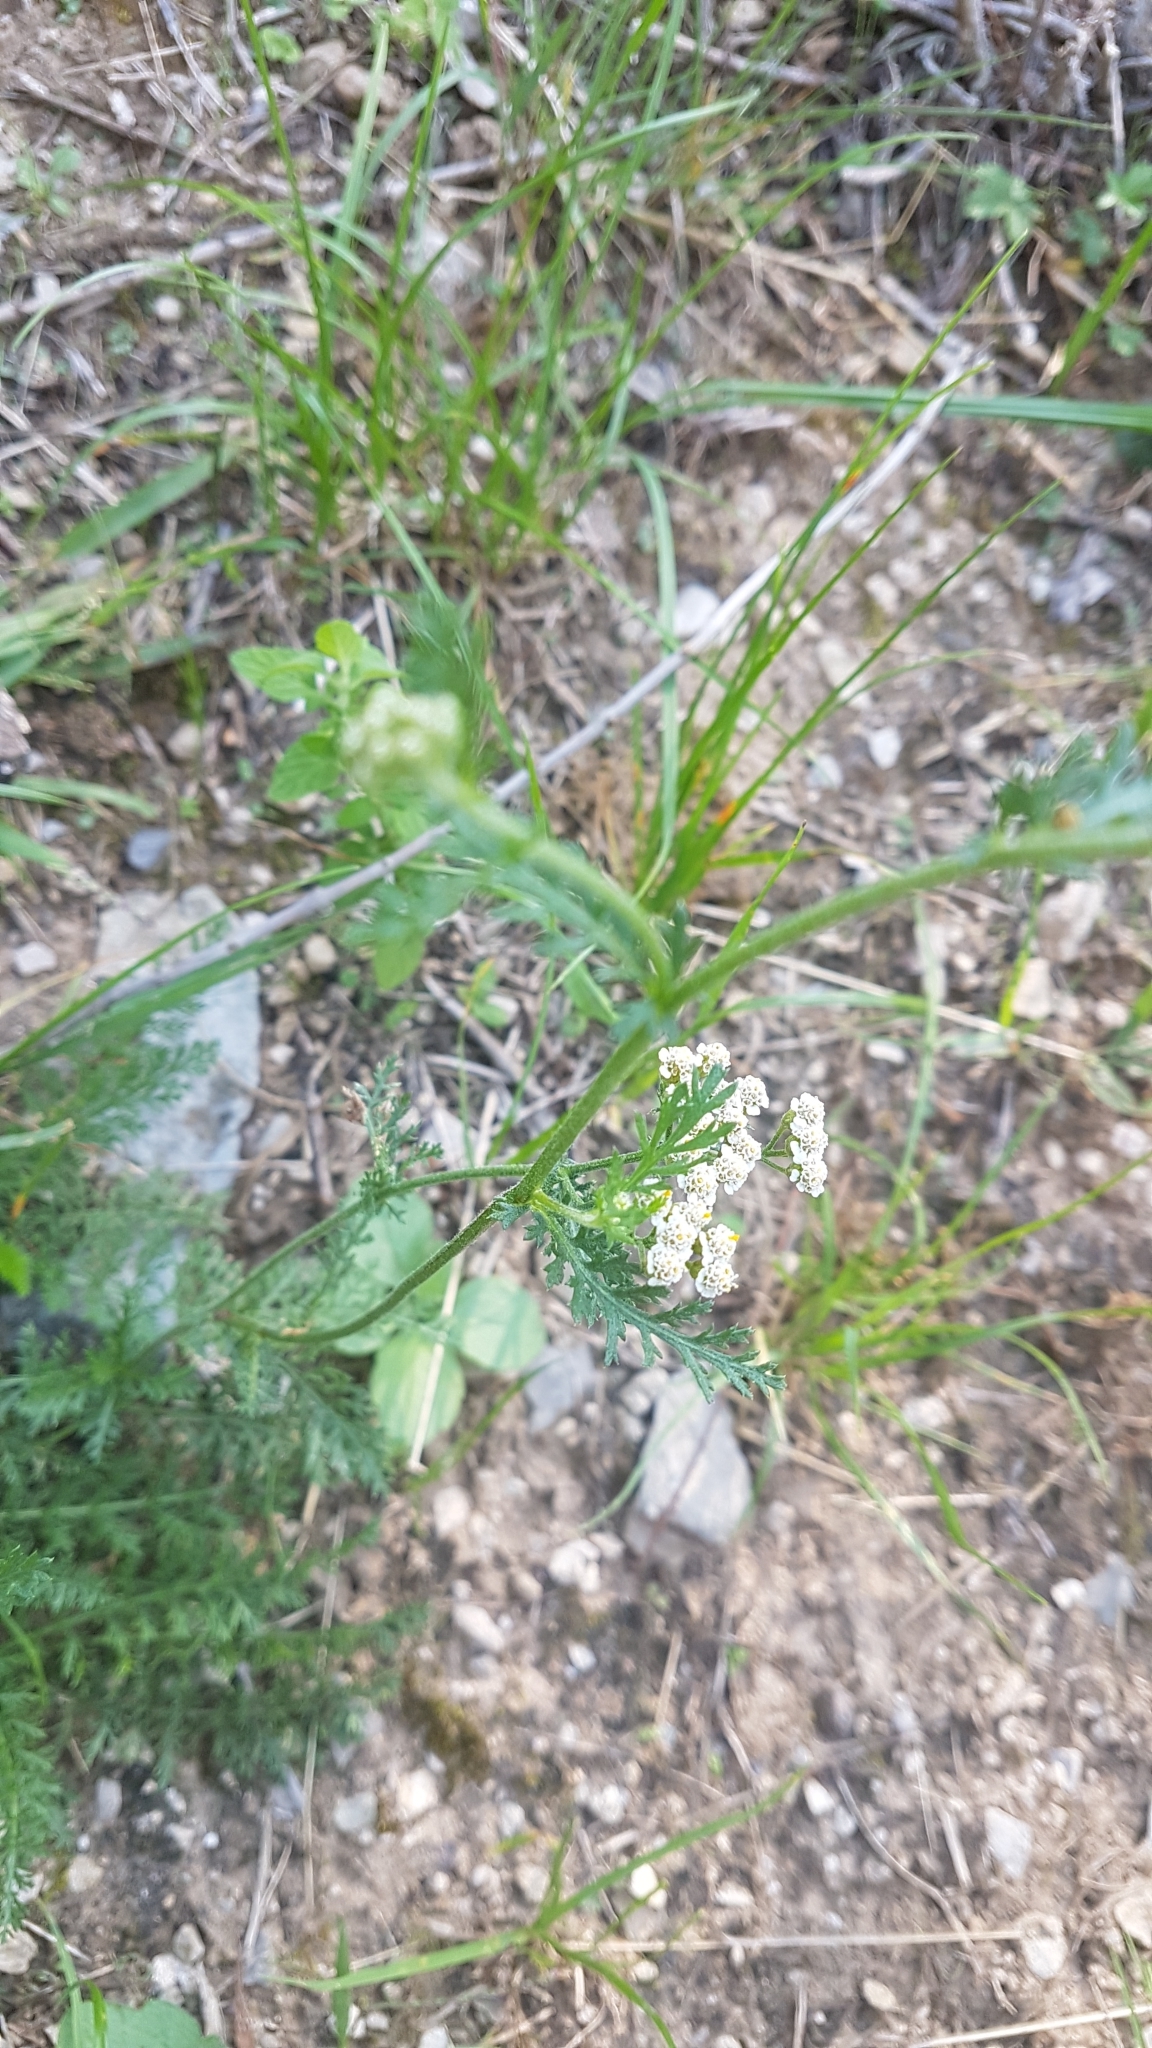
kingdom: Plantae
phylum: Tracheophyta
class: Magnoliopsida
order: Asterales
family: Asteraceae
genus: Achillea
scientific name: Achillea millefolium
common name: Yarrow
